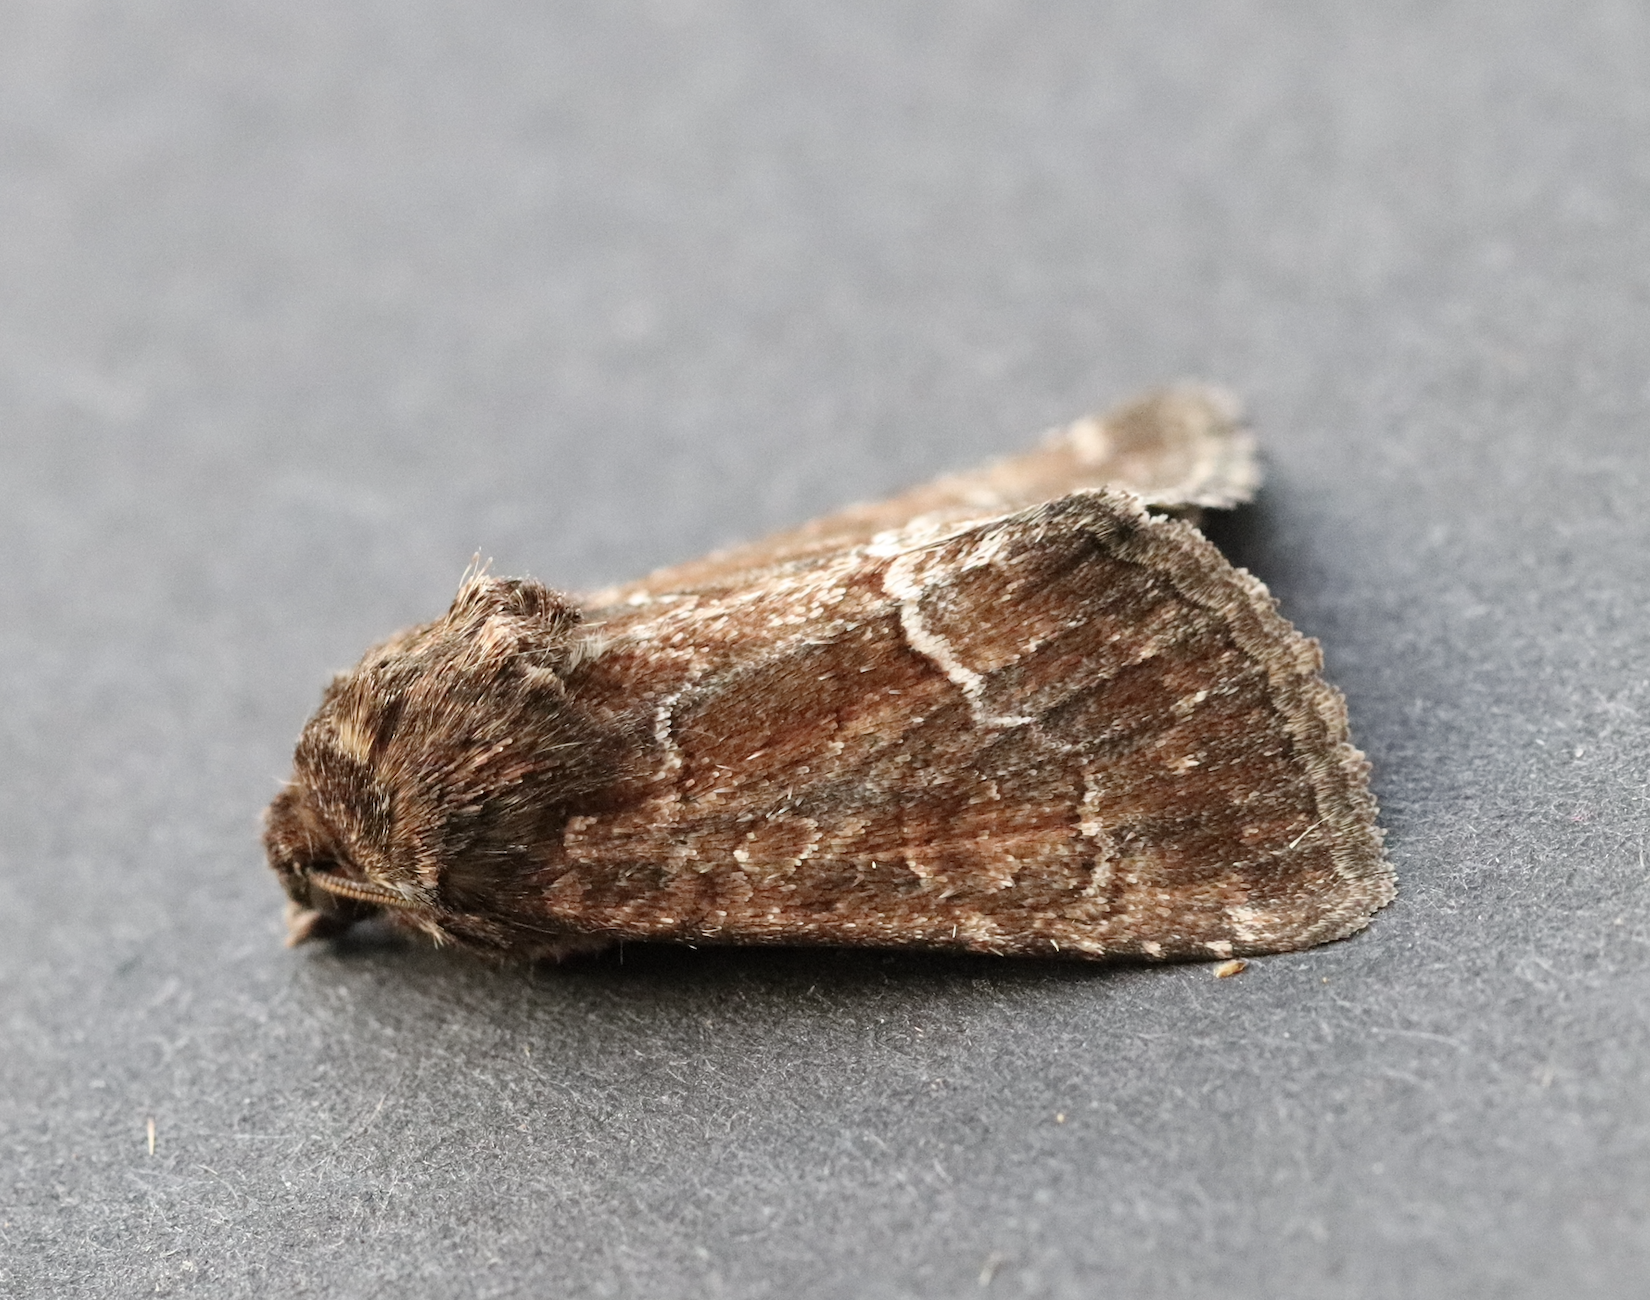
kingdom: Animalia
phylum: Arthropoda
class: Insecta
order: Lepidoptera
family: Noctuidae
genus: Thalpophila
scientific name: Thalpophila matura
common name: Straw underwing
